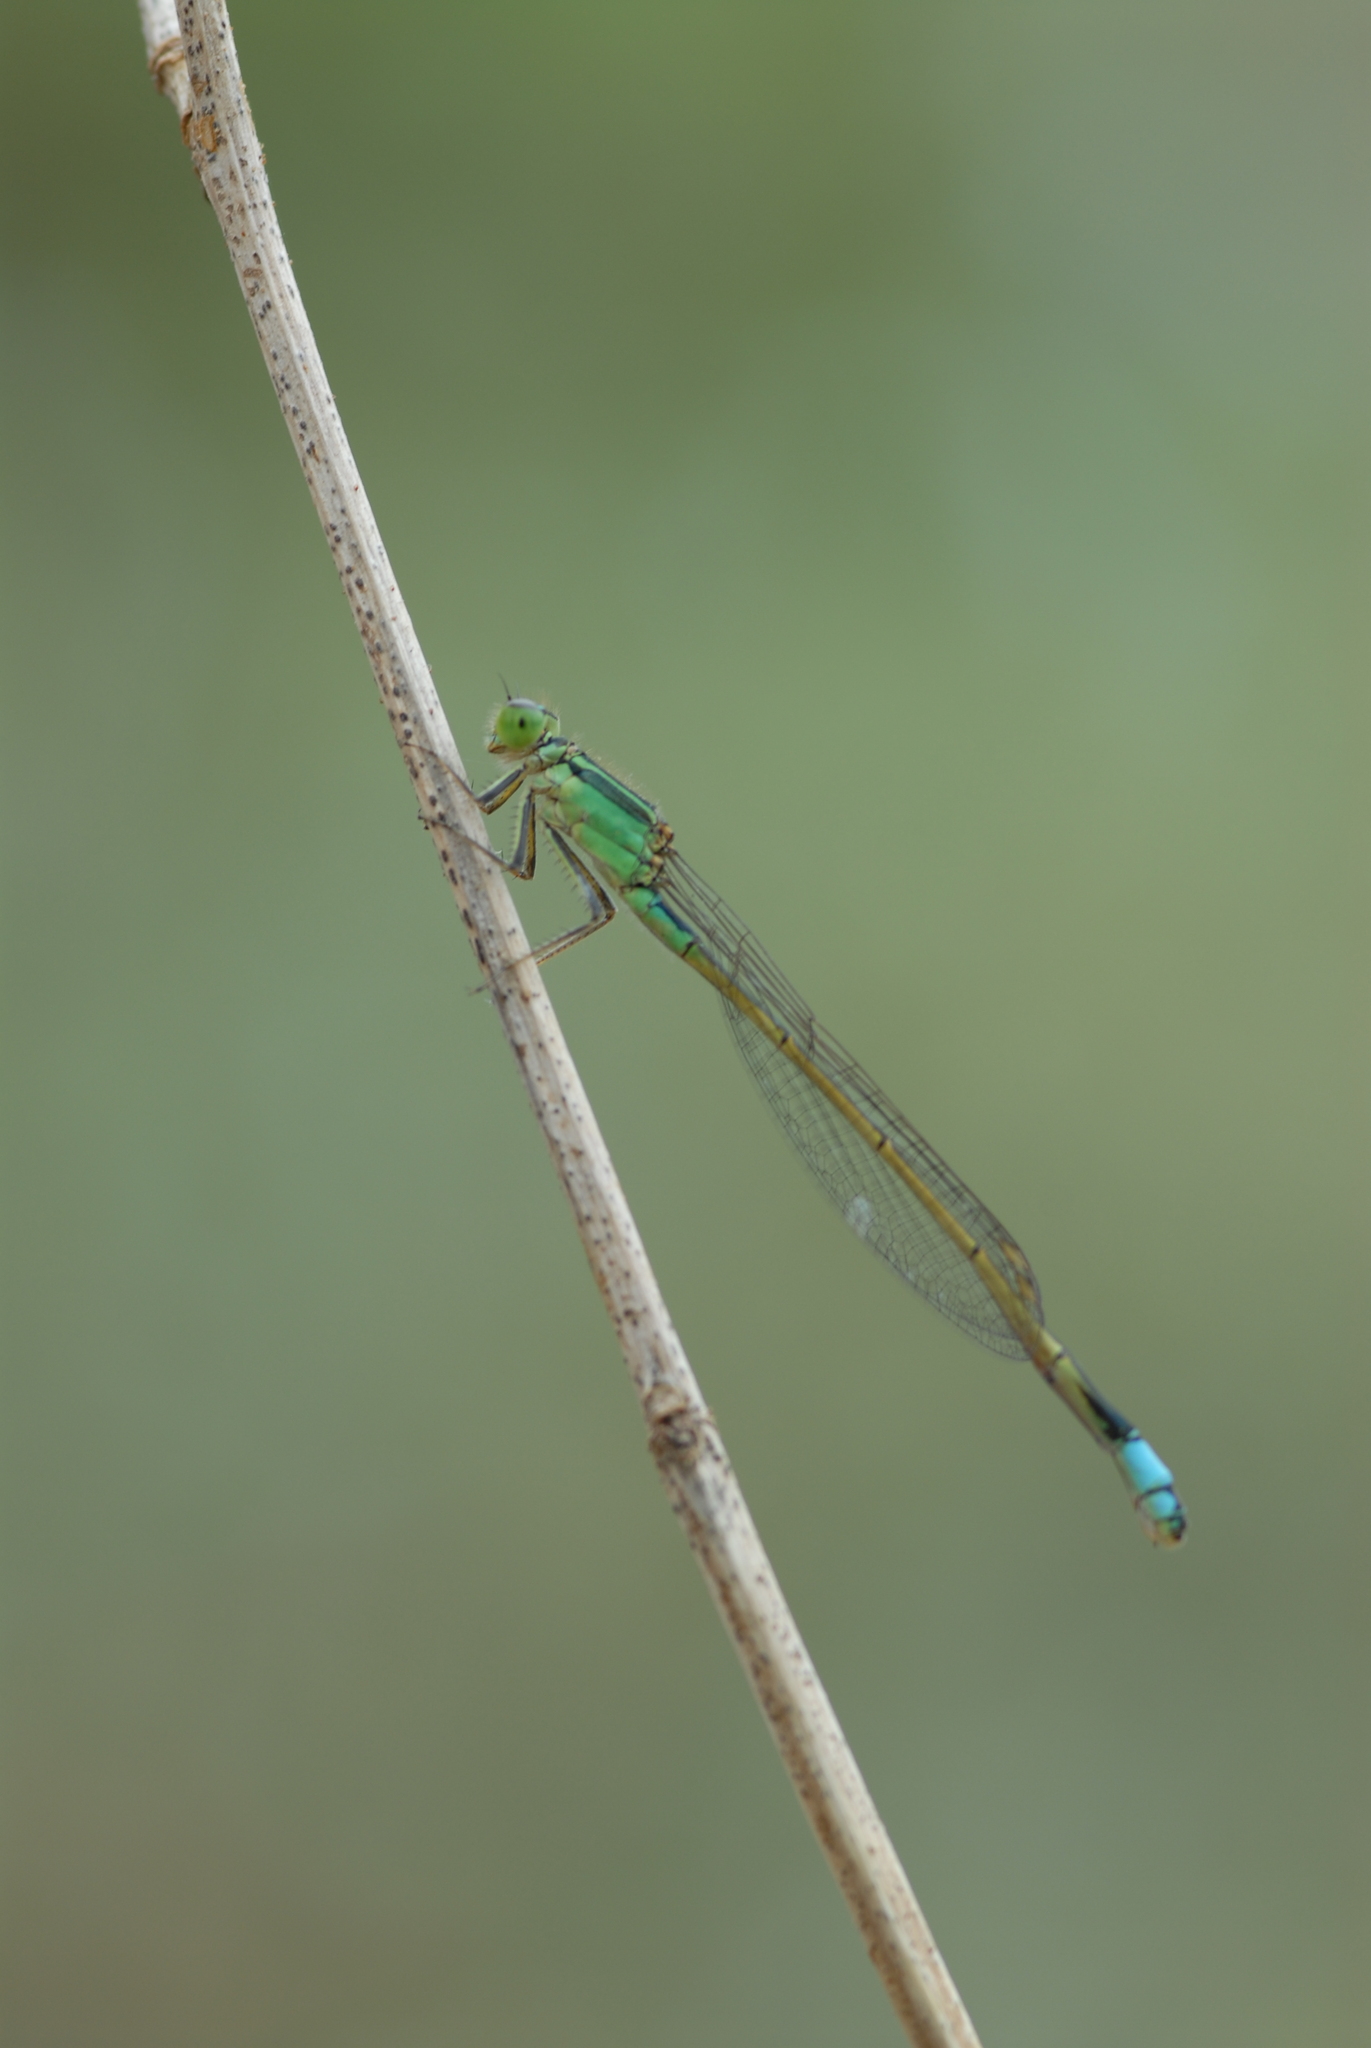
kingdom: Animalia
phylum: Arthropoda
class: Insecta
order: Odonata
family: Coenagrionidae
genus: Ischnura
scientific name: Ischnura senegalensis
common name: Tropical bluetail
